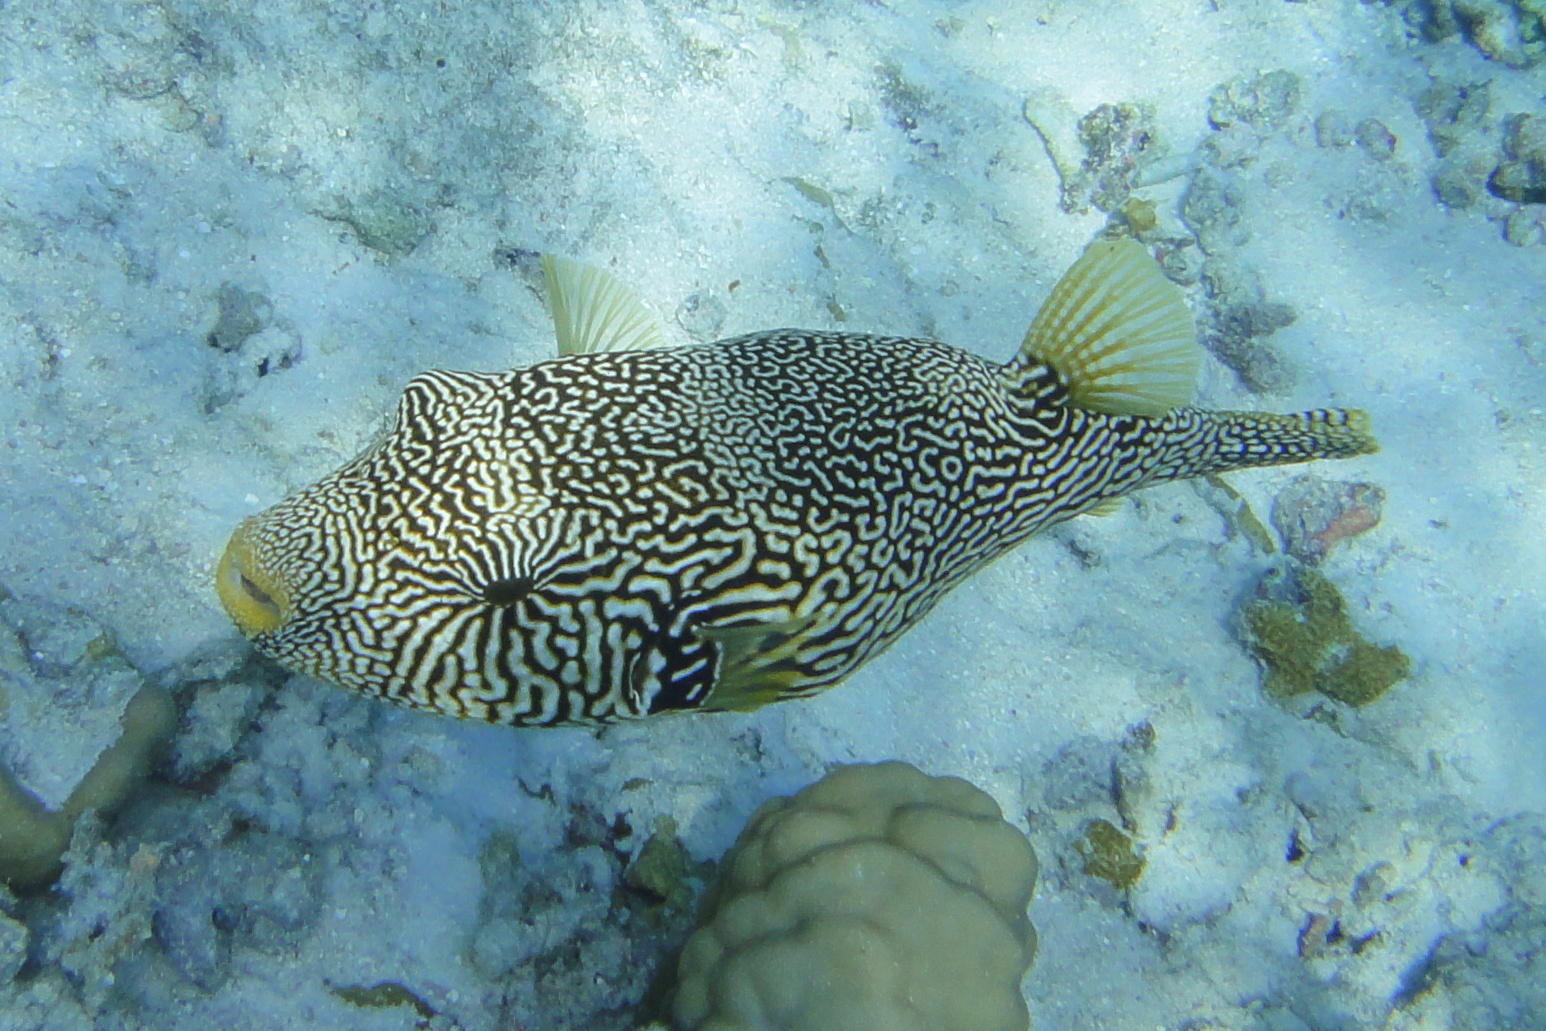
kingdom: Animalia
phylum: Chordata
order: Tetraodontiformes
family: Tetraodontidae
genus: Arothron
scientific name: Arothron mappa
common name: Map blaasop
